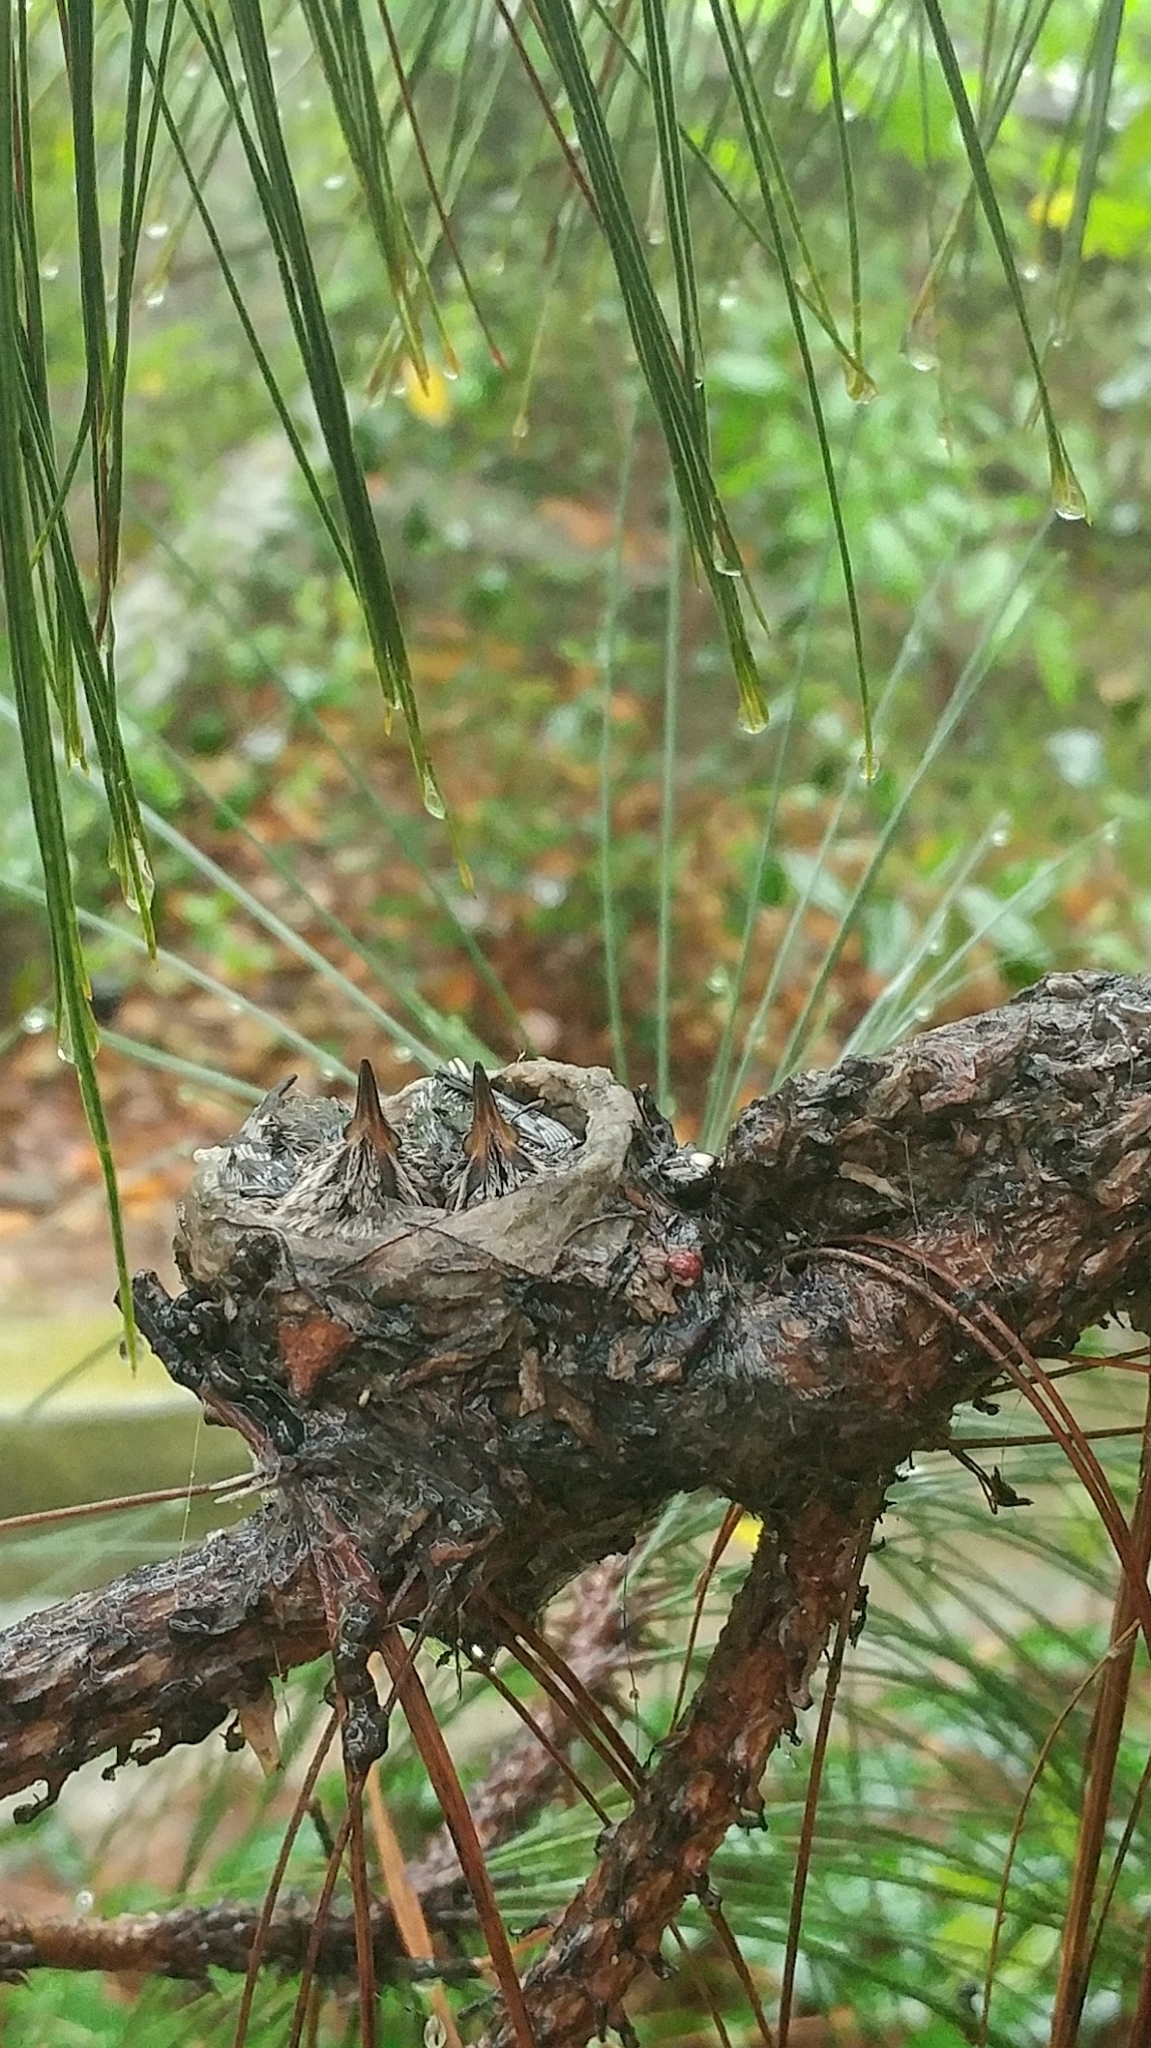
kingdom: Animalia
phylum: Chordata
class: Aves
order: Apodiformes
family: Trochilidae
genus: Calypte
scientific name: Calypte anna
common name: Anna's hummingbird
